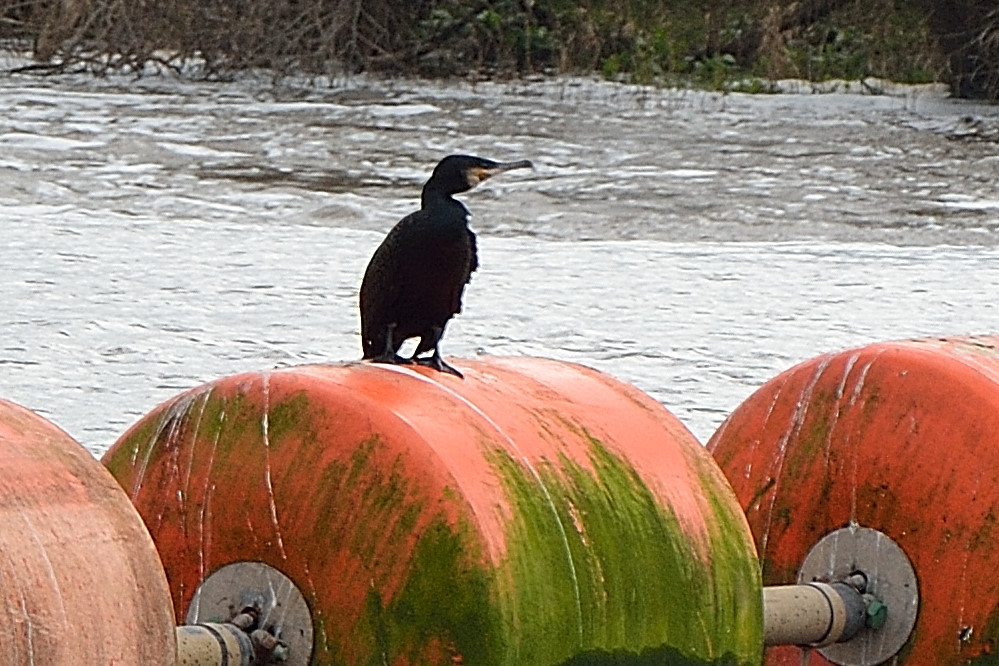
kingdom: Animalia
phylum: Chordata
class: Aves
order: Suliformes
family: Phalacrocoracidae
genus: Phalacrocorax
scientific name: Phalacrocorax carbo
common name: Great cormorant
